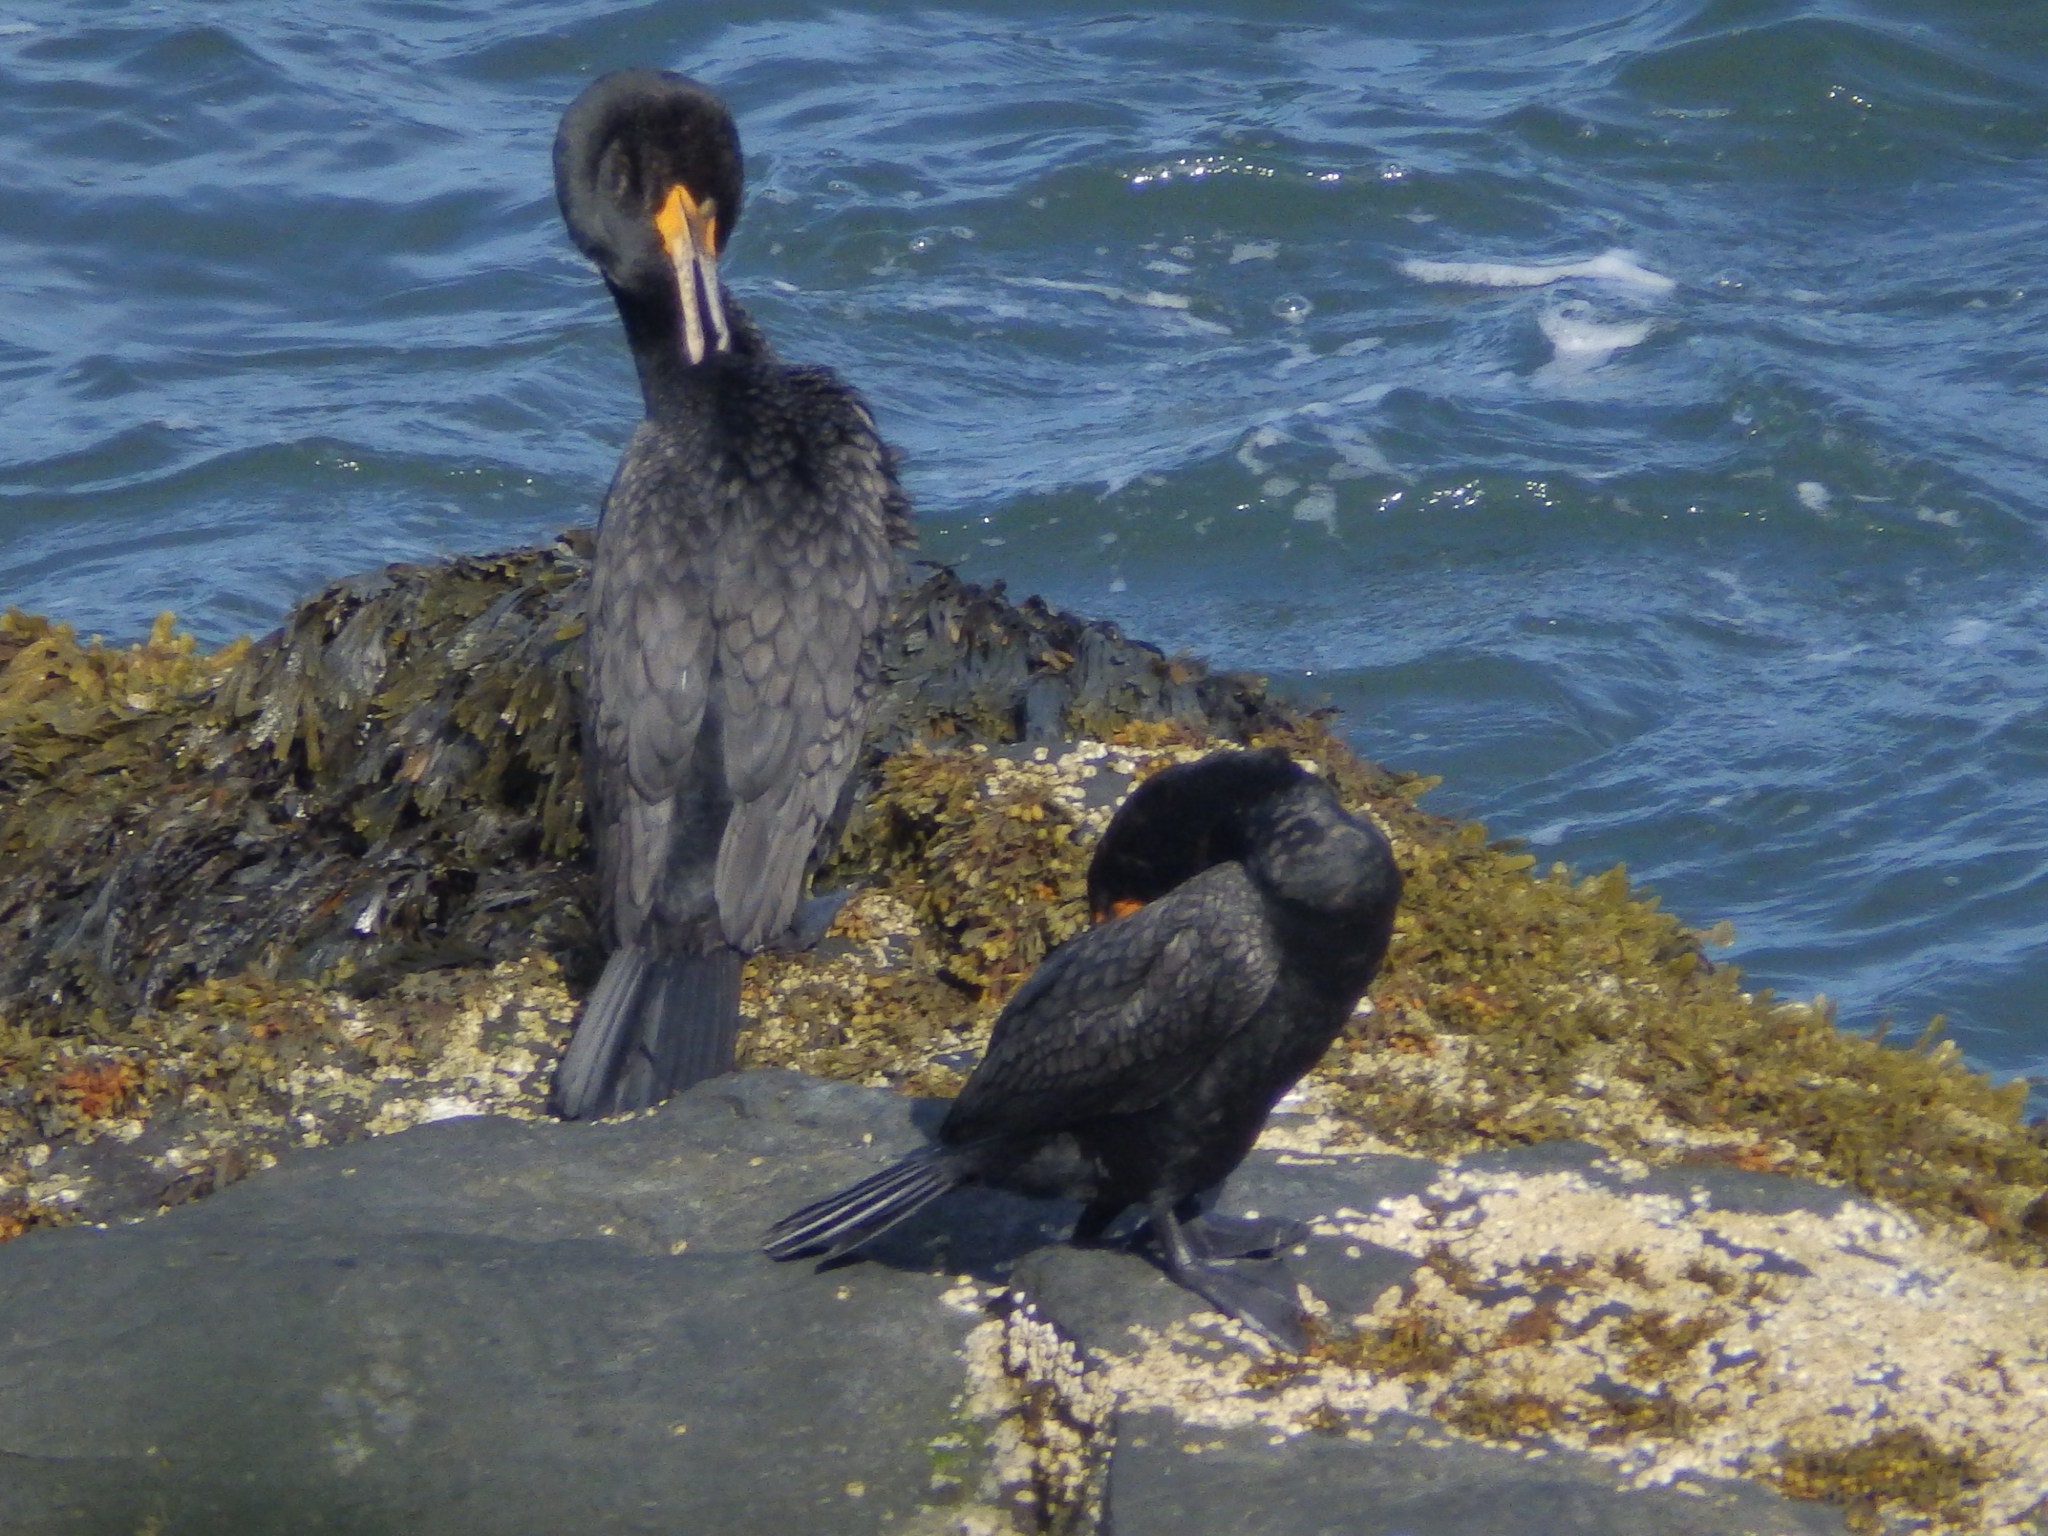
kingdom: Animalia
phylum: Chordata
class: Aves
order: Suliformes
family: Phalacrocoracidae
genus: Phalacrocorax
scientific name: Phalacrocorax auritus
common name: Double-crested cormorant
